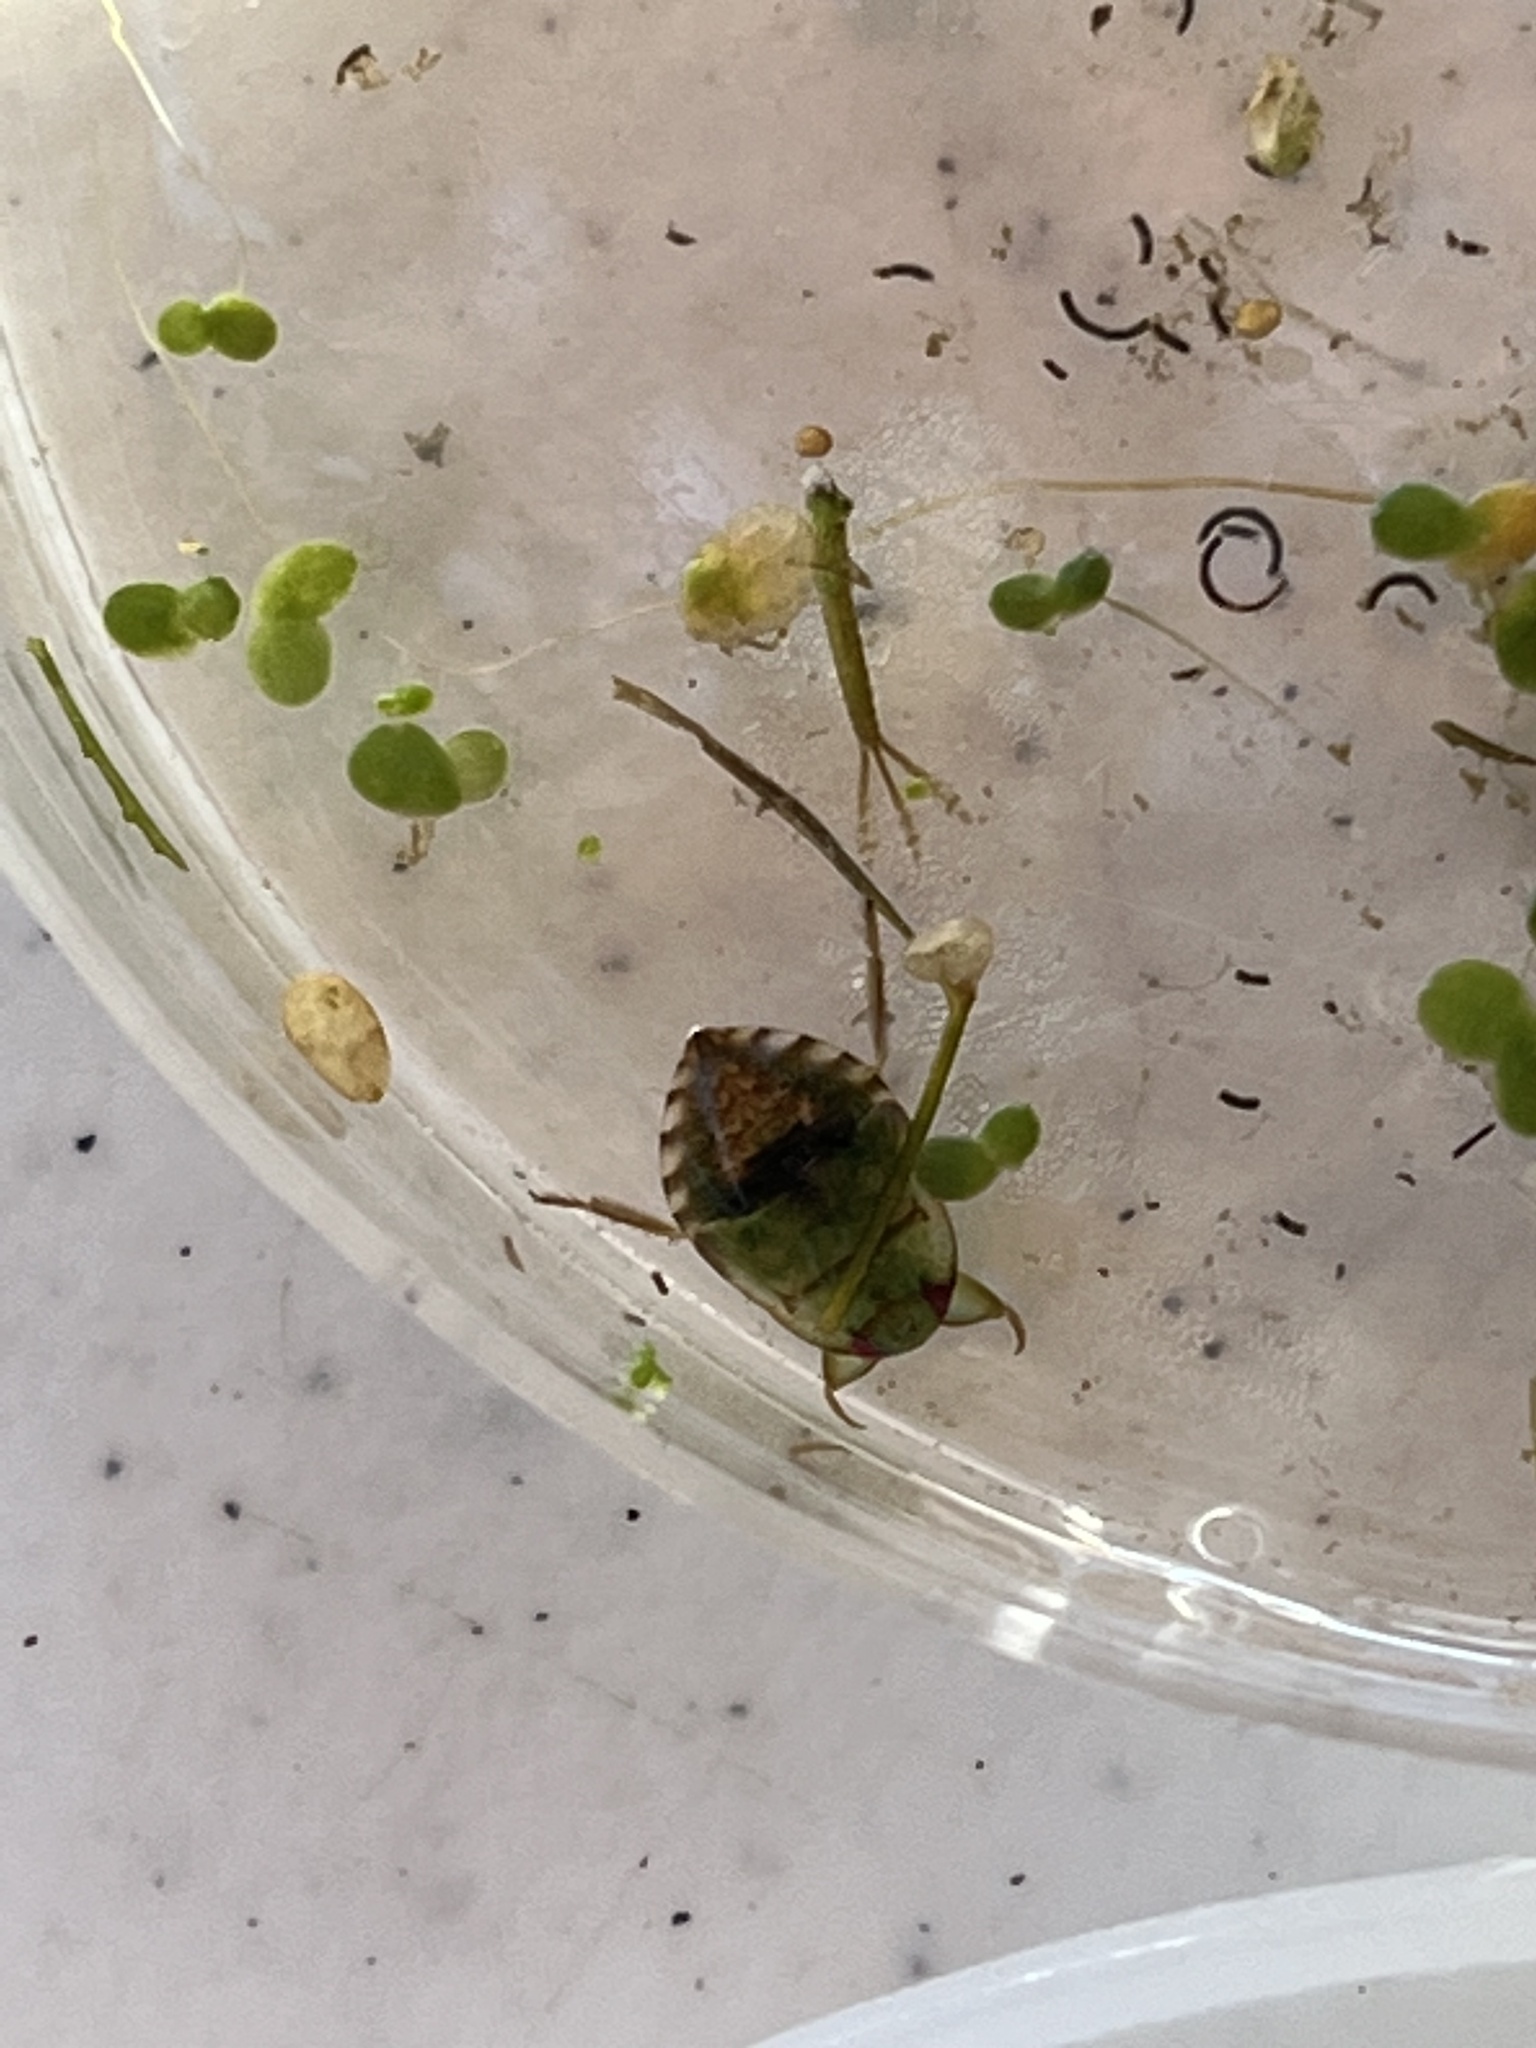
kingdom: Animalia
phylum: Arthropoda
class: Insecta
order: Hemiptera
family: Naucoridae
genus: Pelocoris
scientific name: Pelocoris femoratus
